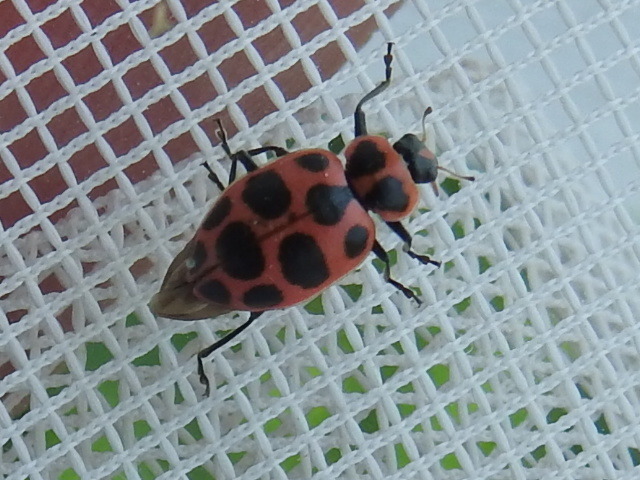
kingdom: Animalia
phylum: Arthropoda
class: Insecta
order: Coleoptera
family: Coccinellidae
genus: Coleomegilla
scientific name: Coleomegilla maculata
